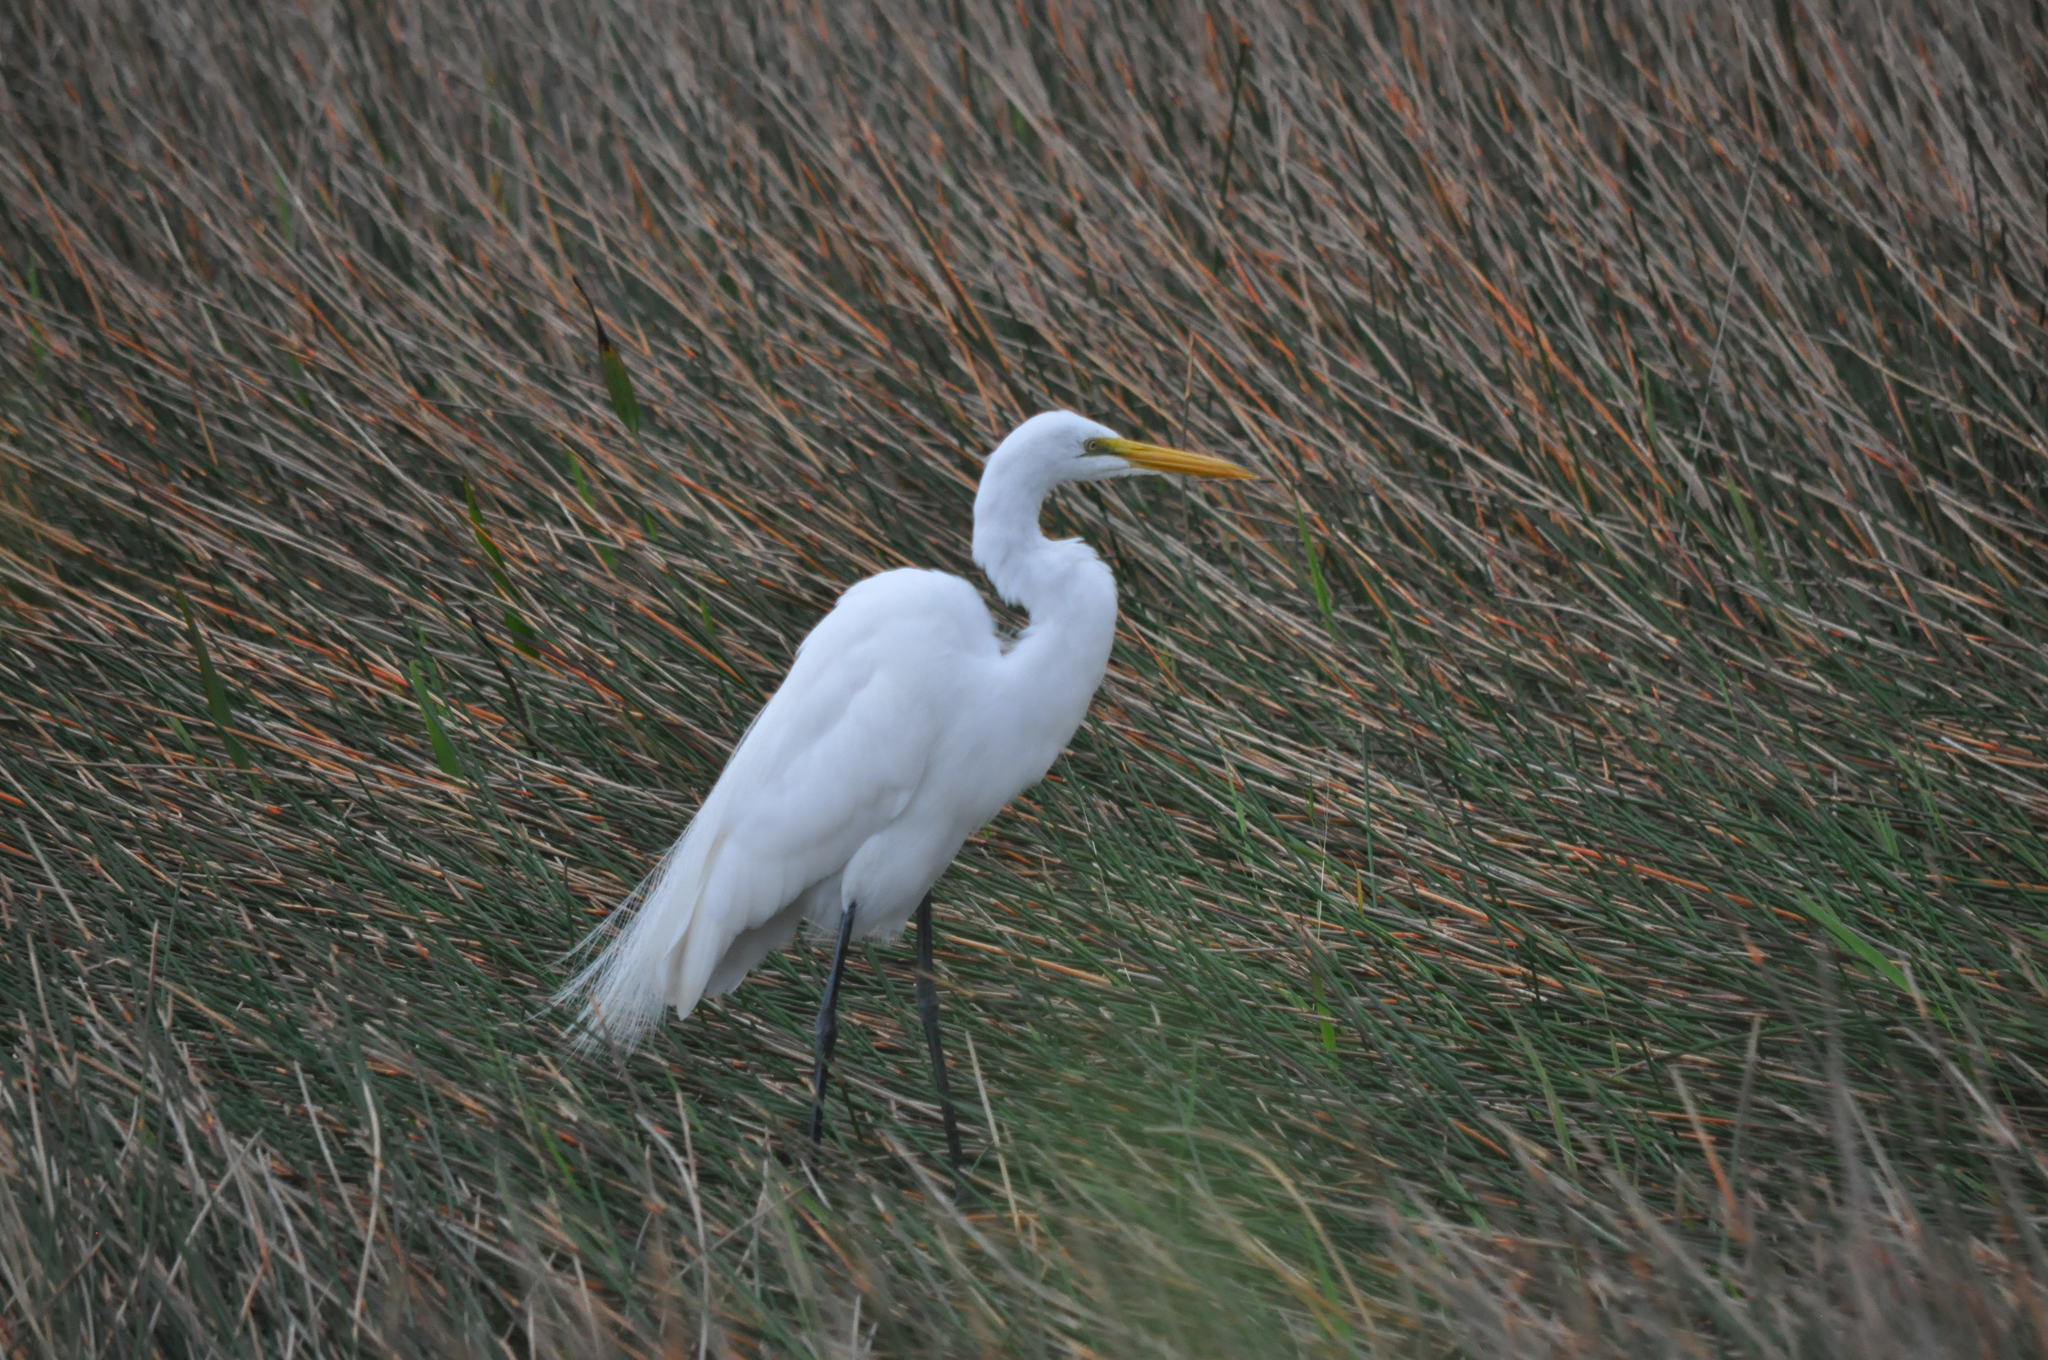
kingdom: Animalia
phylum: Chordata
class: Aves
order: Pelecaniformes
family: Ardeidae
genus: Ardea
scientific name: Ardea alba
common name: Great egret
